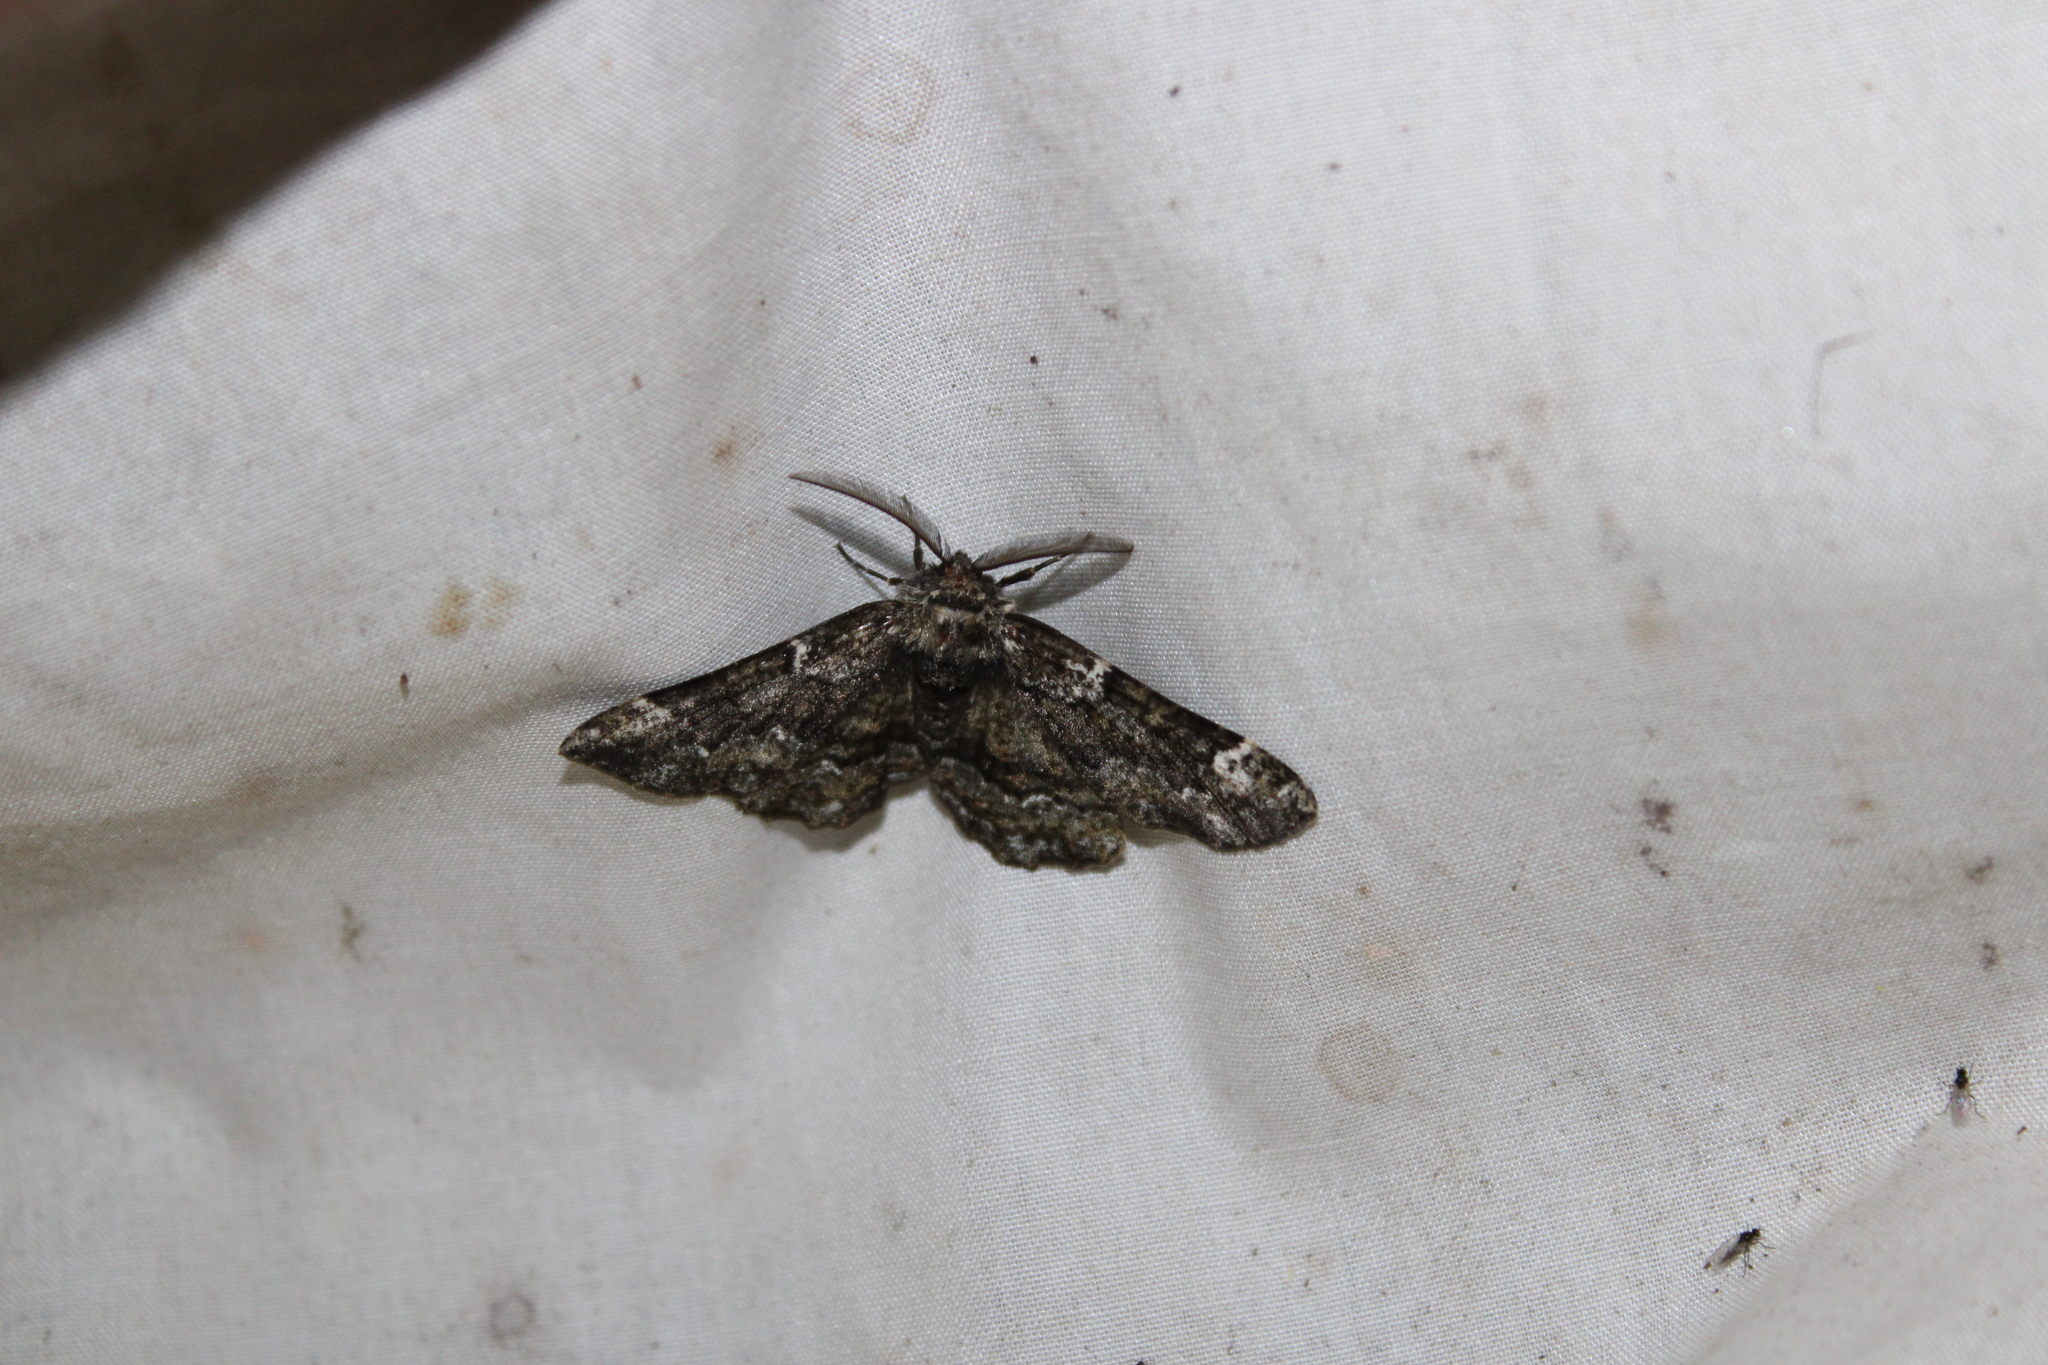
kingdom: Animalia
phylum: Arthropoda
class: Insecta
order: Lepidoptera
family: Geometridae
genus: Phaeoura
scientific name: Phaeoura quernaria
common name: Oak beauty
